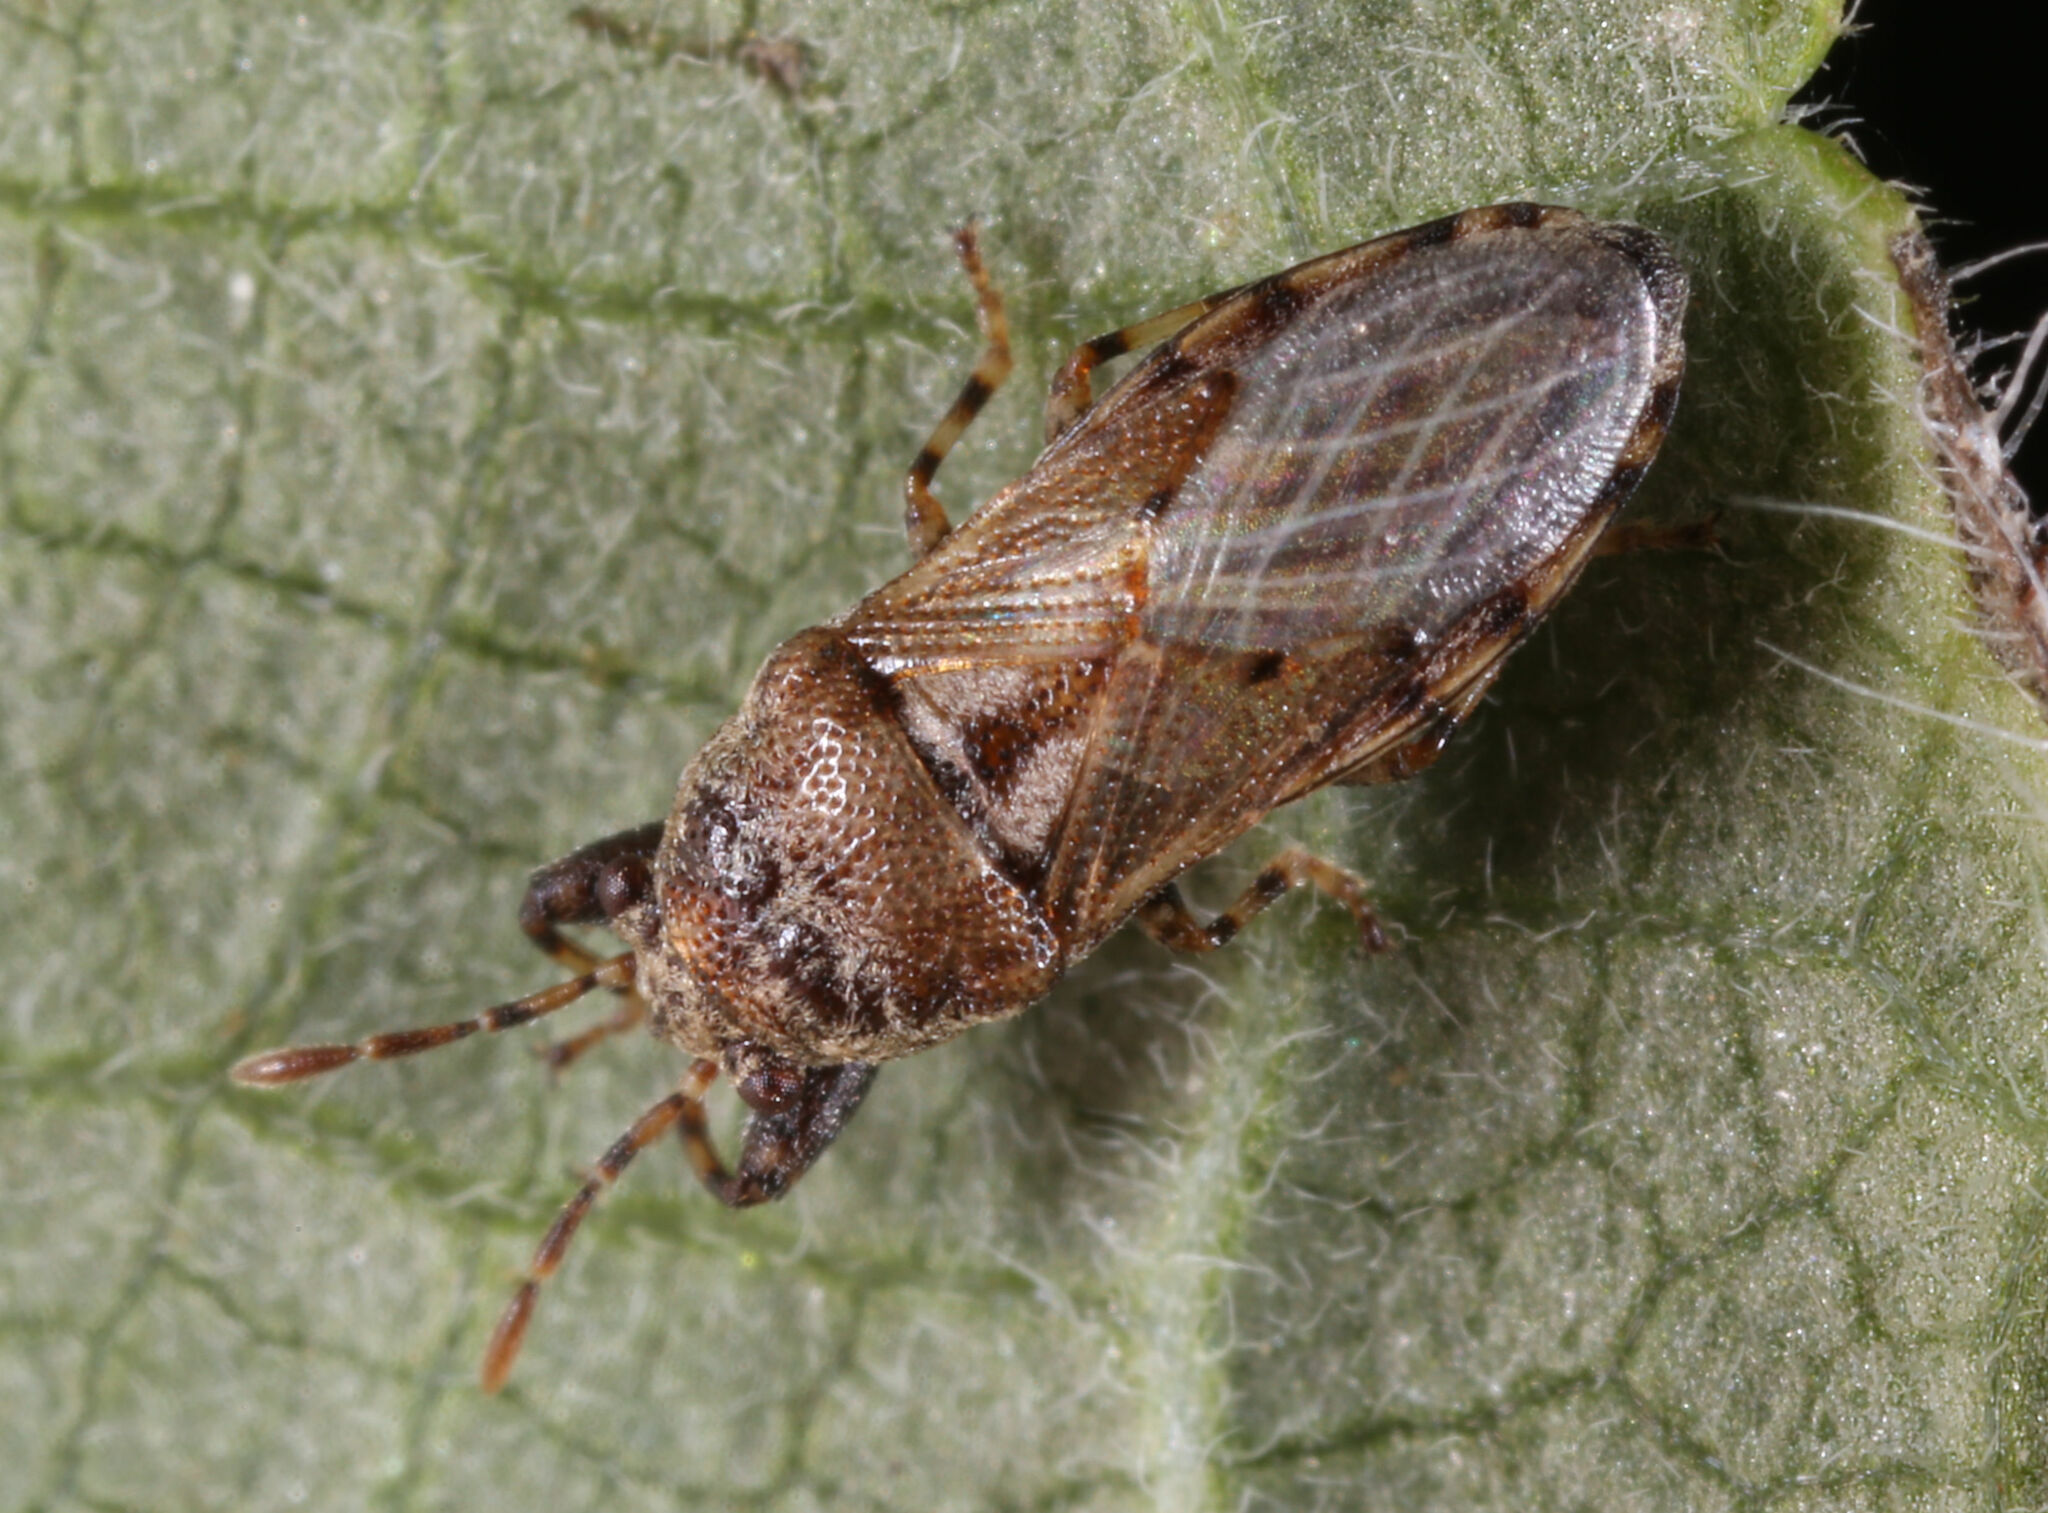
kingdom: Animalia
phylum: Arthropoda
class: Insecta
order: Hemiptera
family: Pachygronthidae
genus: Phlegyas
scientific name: Phlegyas annulicrus
